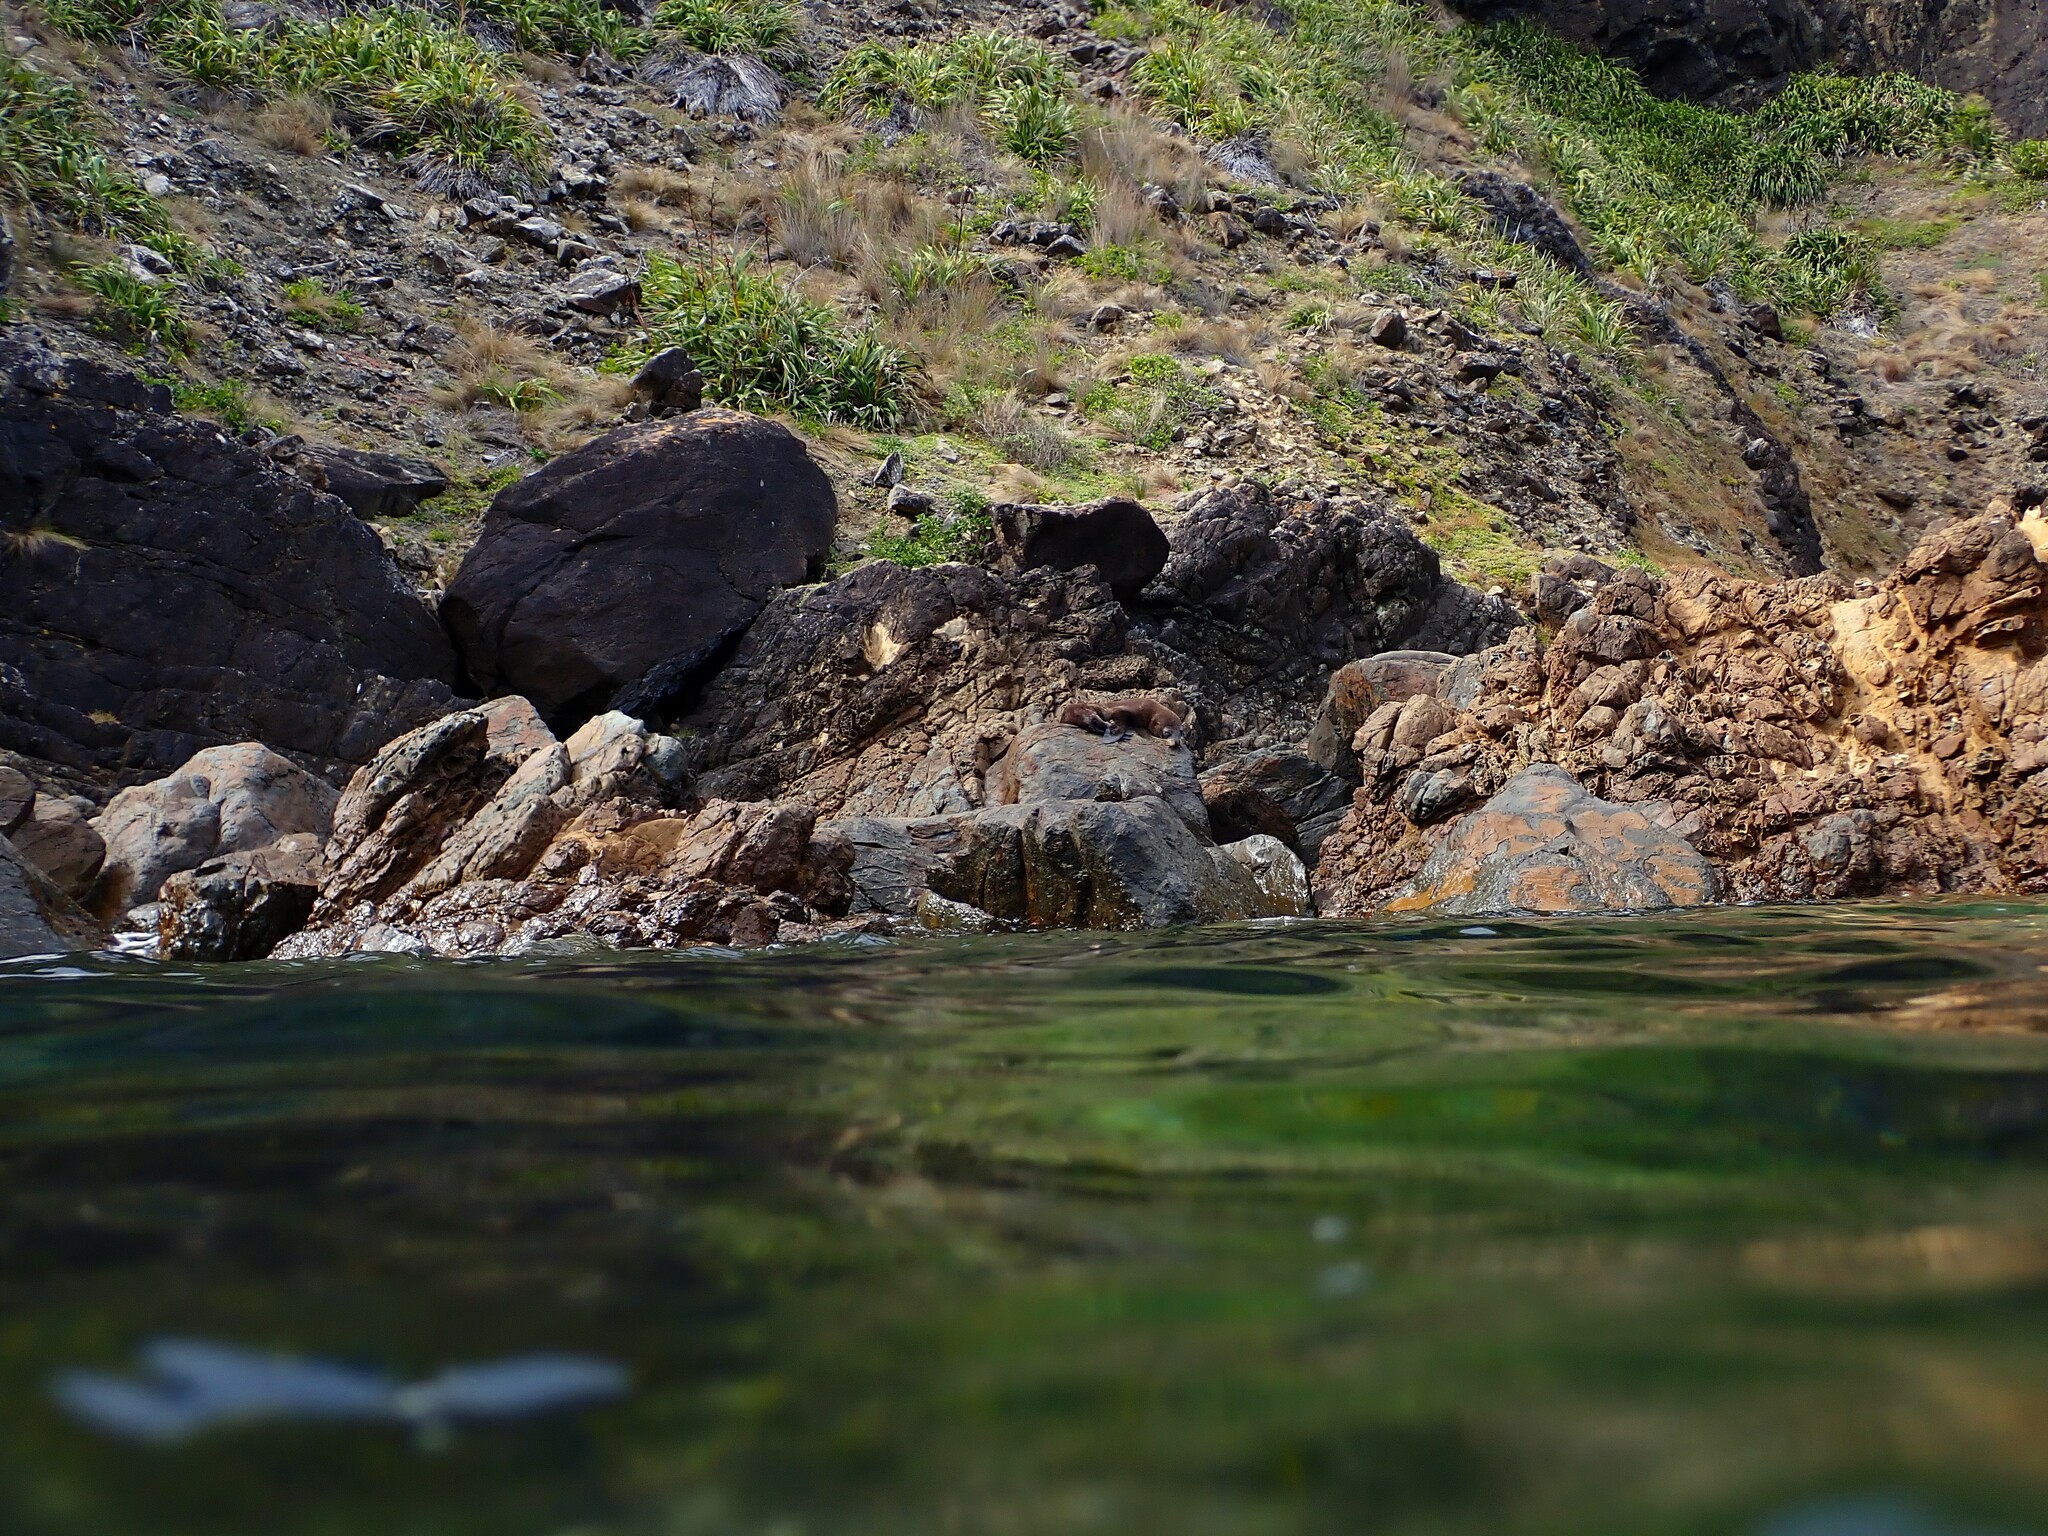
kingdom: Animalia
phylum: Chordata
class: Mammalia
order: Carnivora
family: Otariidae
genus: Arctocephalus
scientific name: Arctocephalus forsteri
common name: New zealand fur seal
